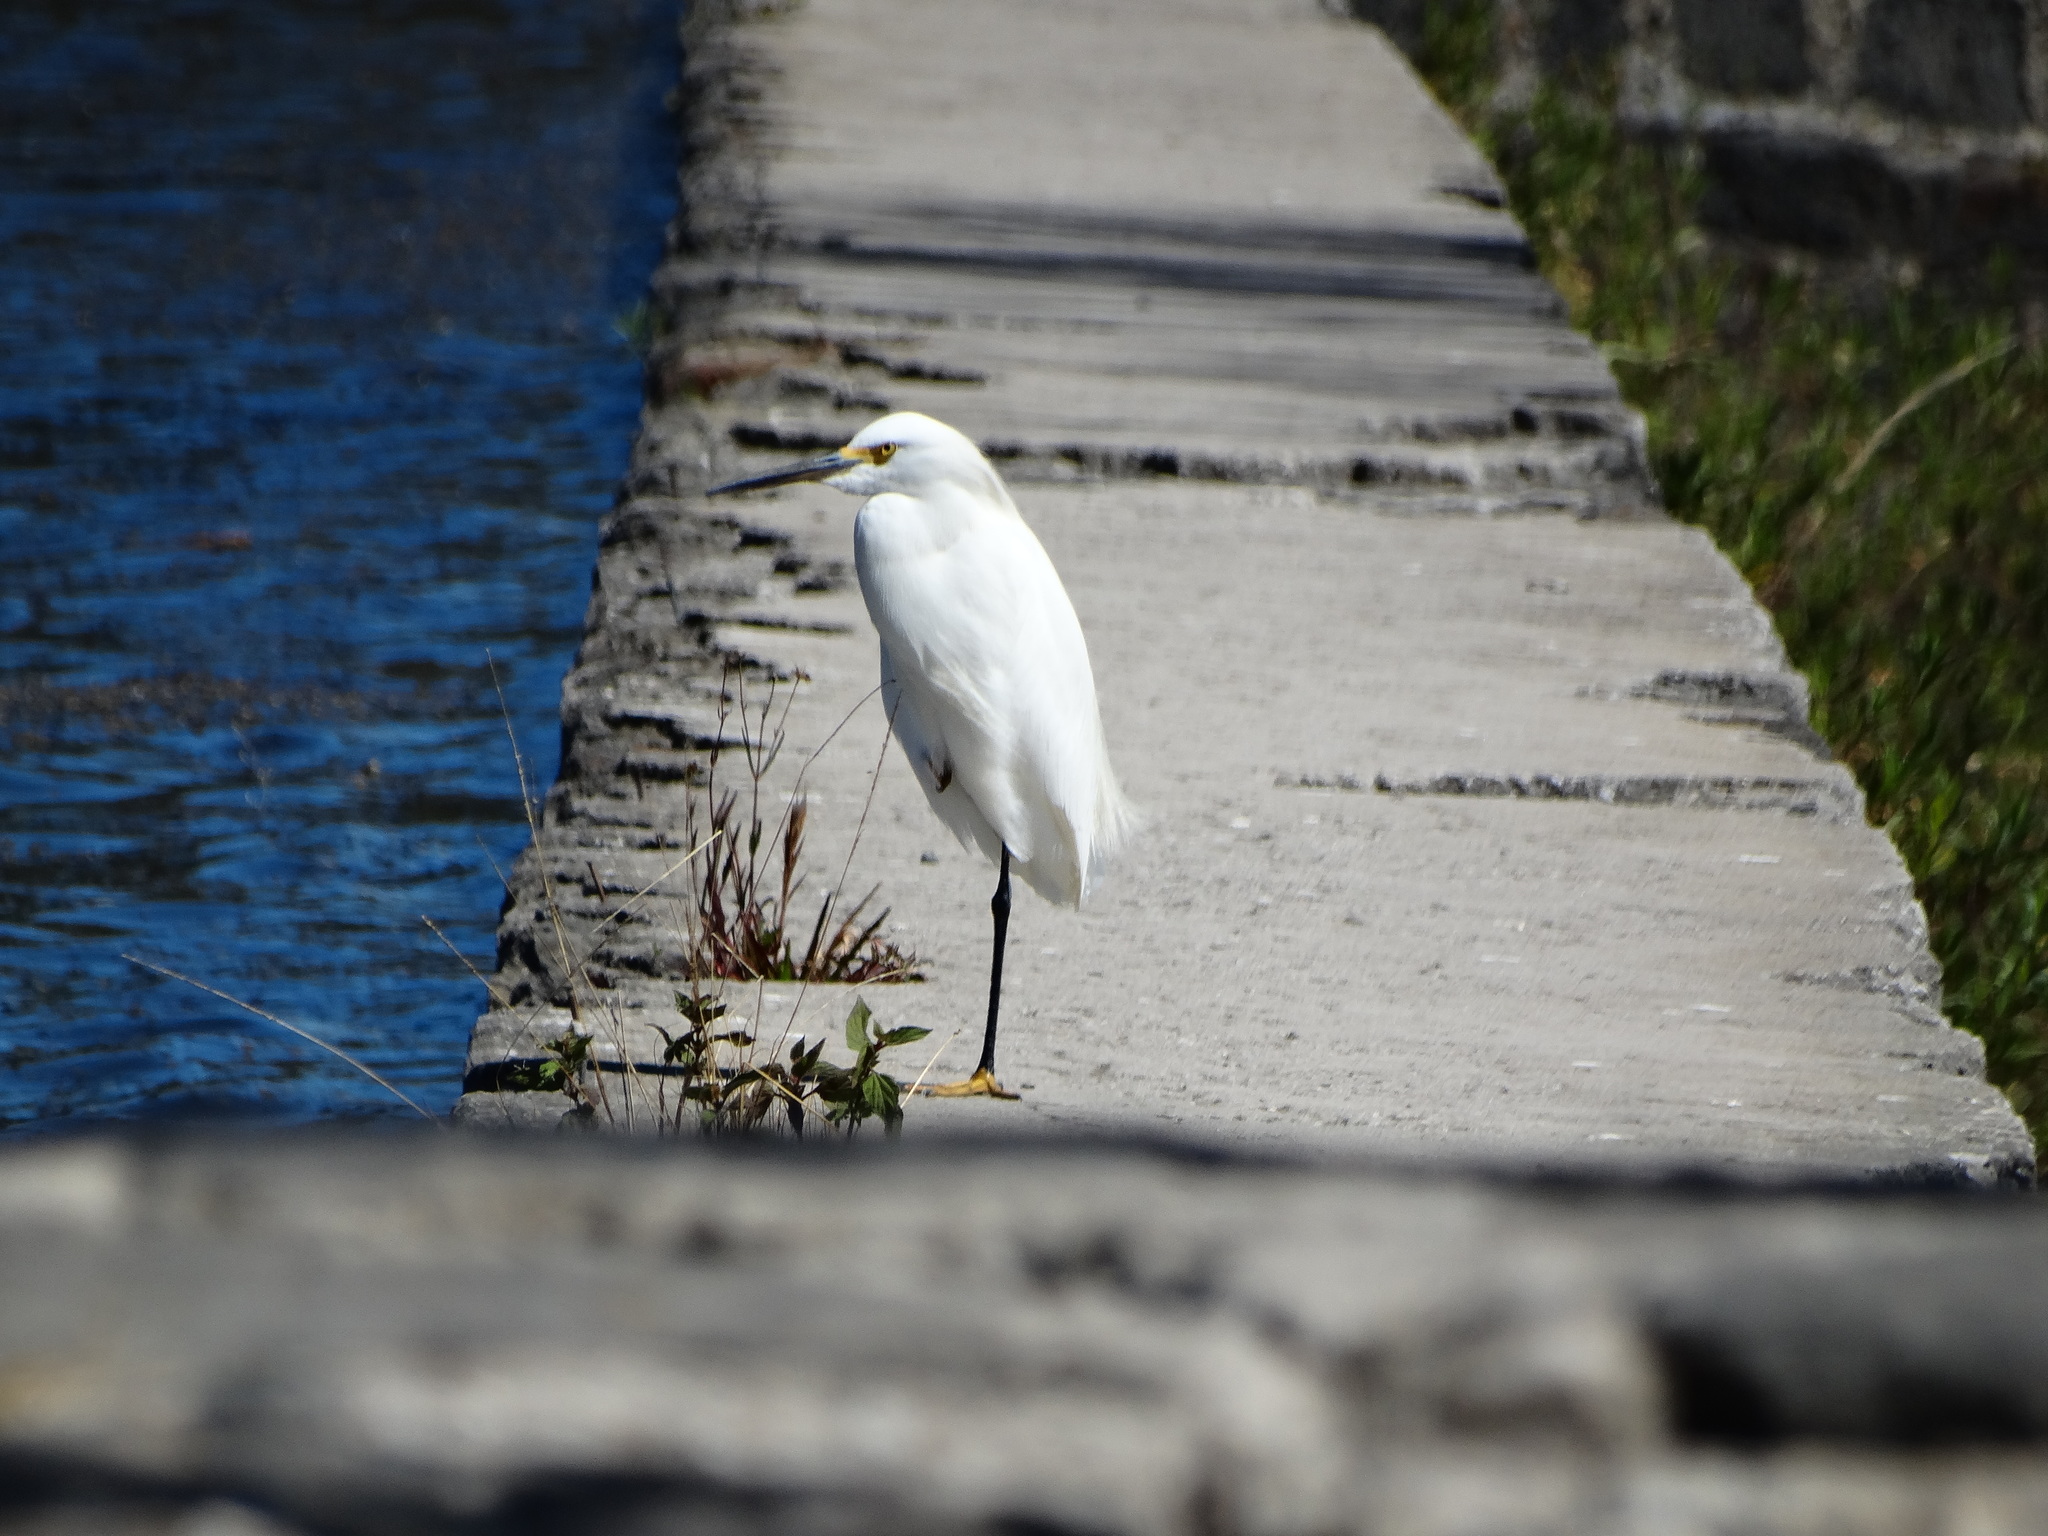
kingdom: Animalia
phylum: Chordata
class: Aves
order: Pelecaniformes
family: Ardeidae
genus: Egretta
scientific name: Egretta thula
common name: Snowy egret
